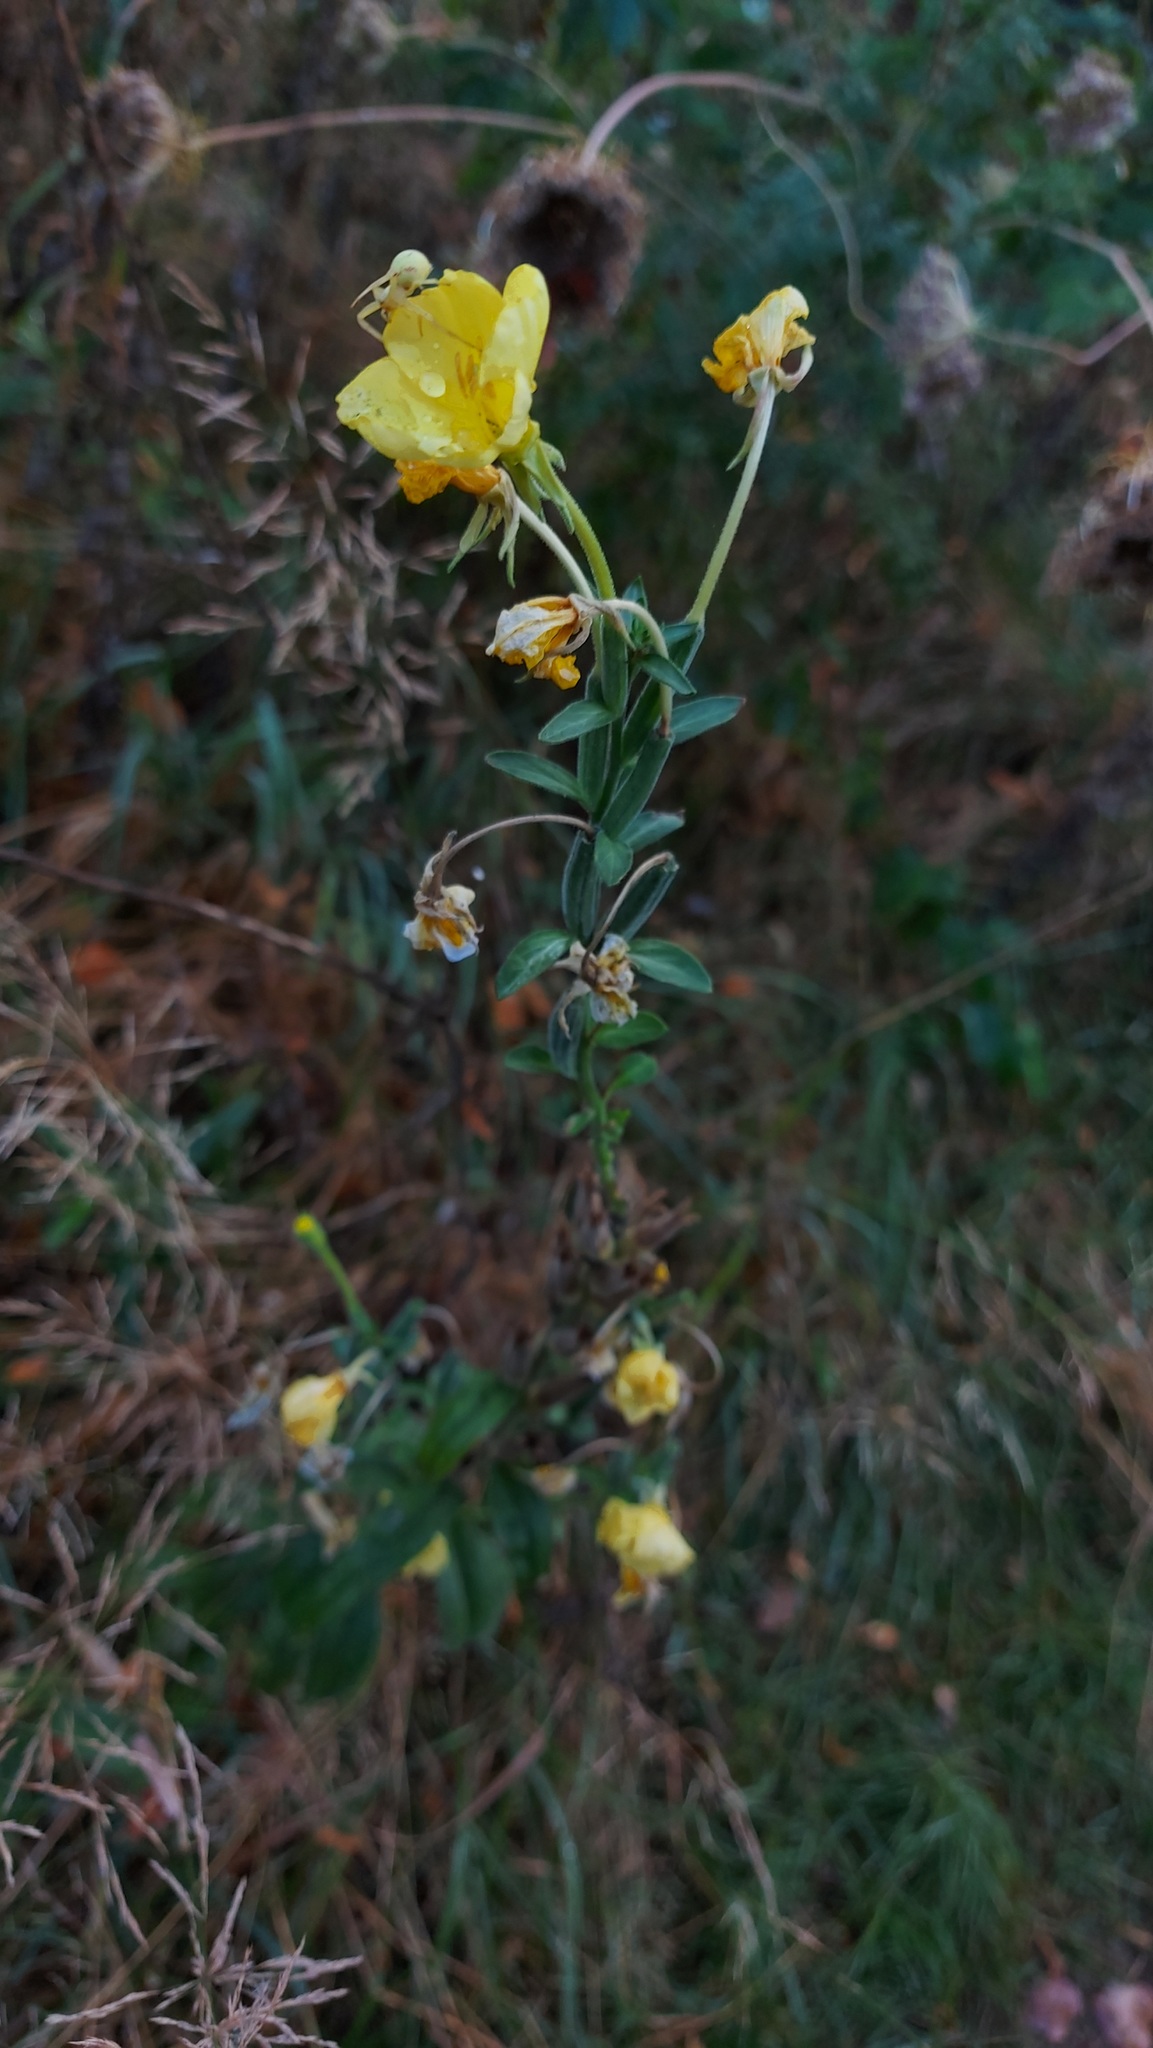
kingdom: Plantae
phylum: Tracheophyta
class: Magnoliopsida
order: Myrtales
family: Onagraceae
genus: Oenothera
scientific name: Oenothera biennis
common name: Common evening-primrose
